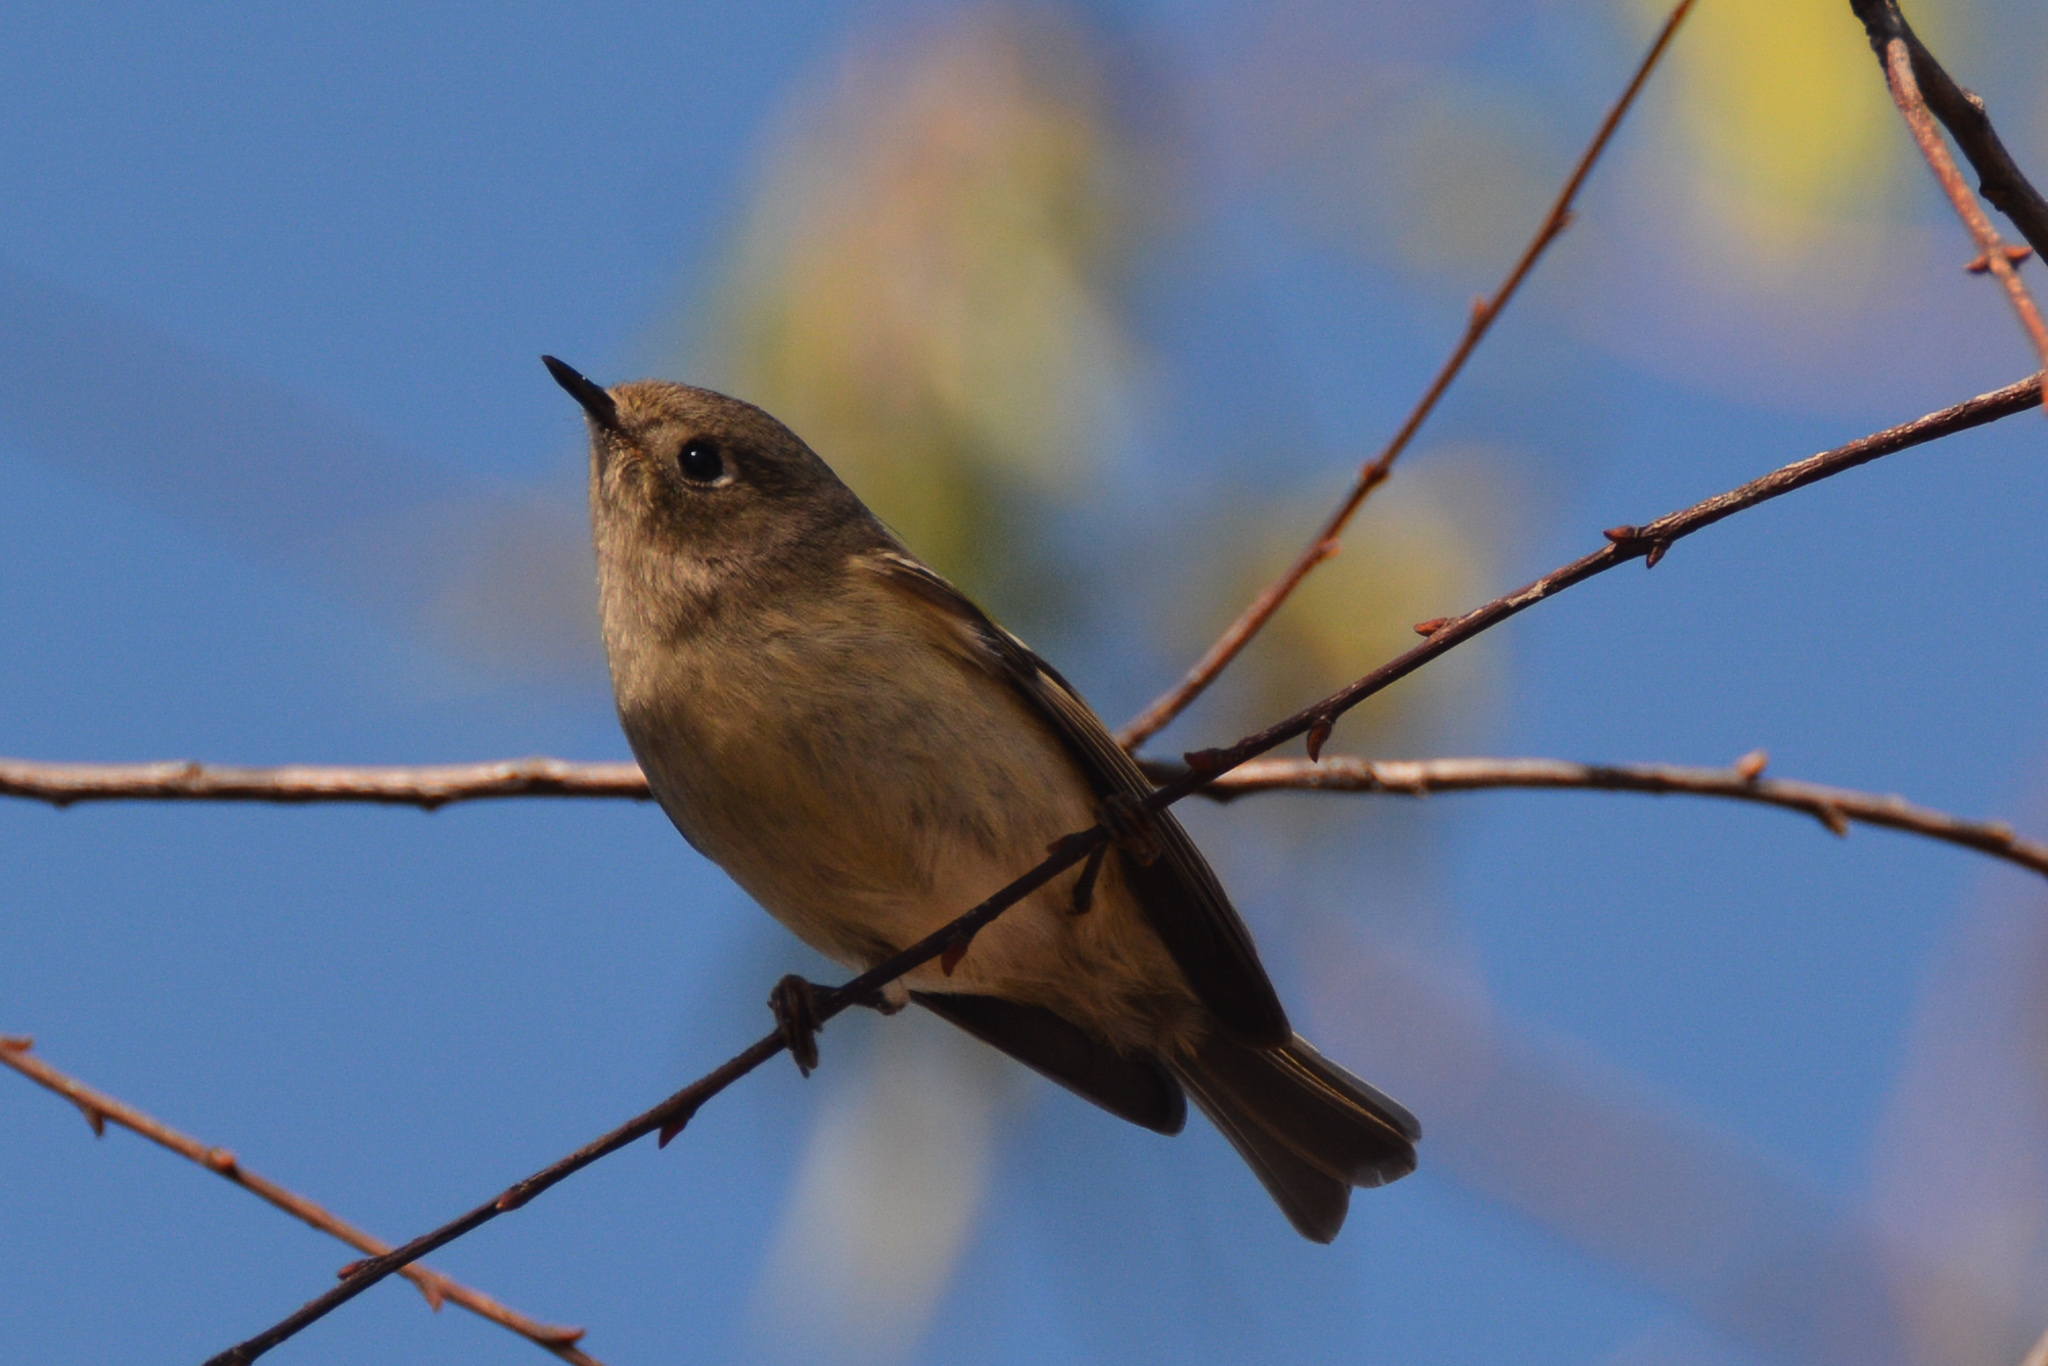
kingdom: Animalia
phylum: Chordata
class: Aves
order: Passeriformes
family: Regulidae
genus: Regulus
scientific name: Regulus calendula
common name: Ruby-crowned kinglet
